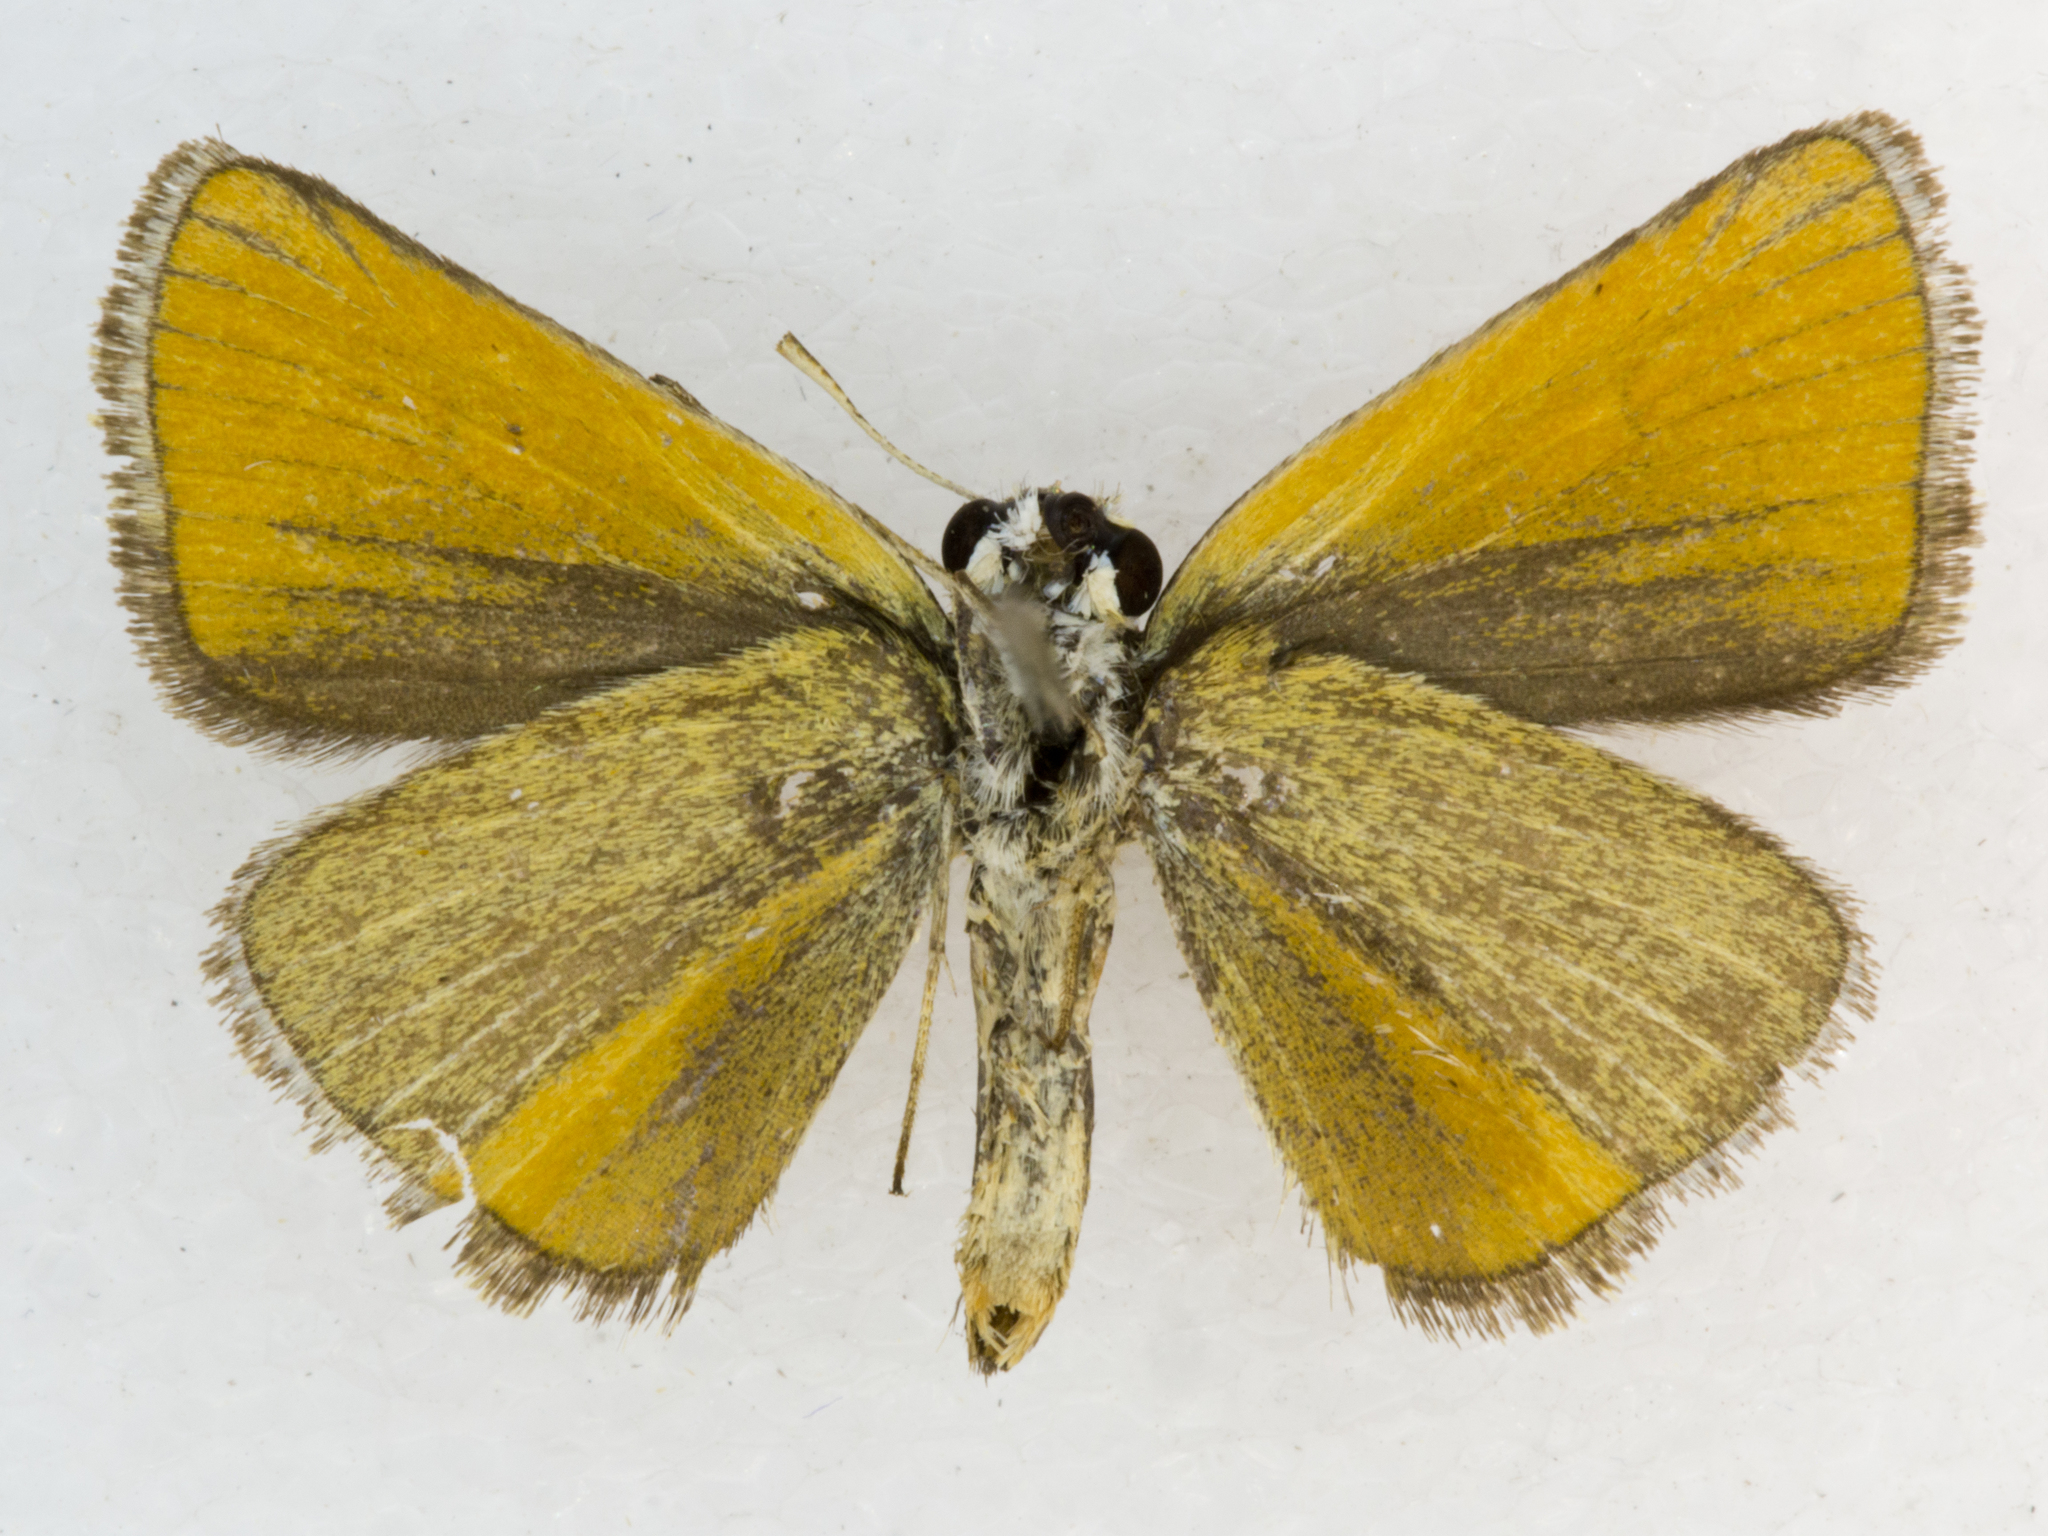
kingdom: Animalia
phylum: Arthropoda
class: Insecta
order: Lepidoptera
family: Hesperiidae
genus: Oarisma
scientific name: Oarisma garita
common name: Garita skipperling
